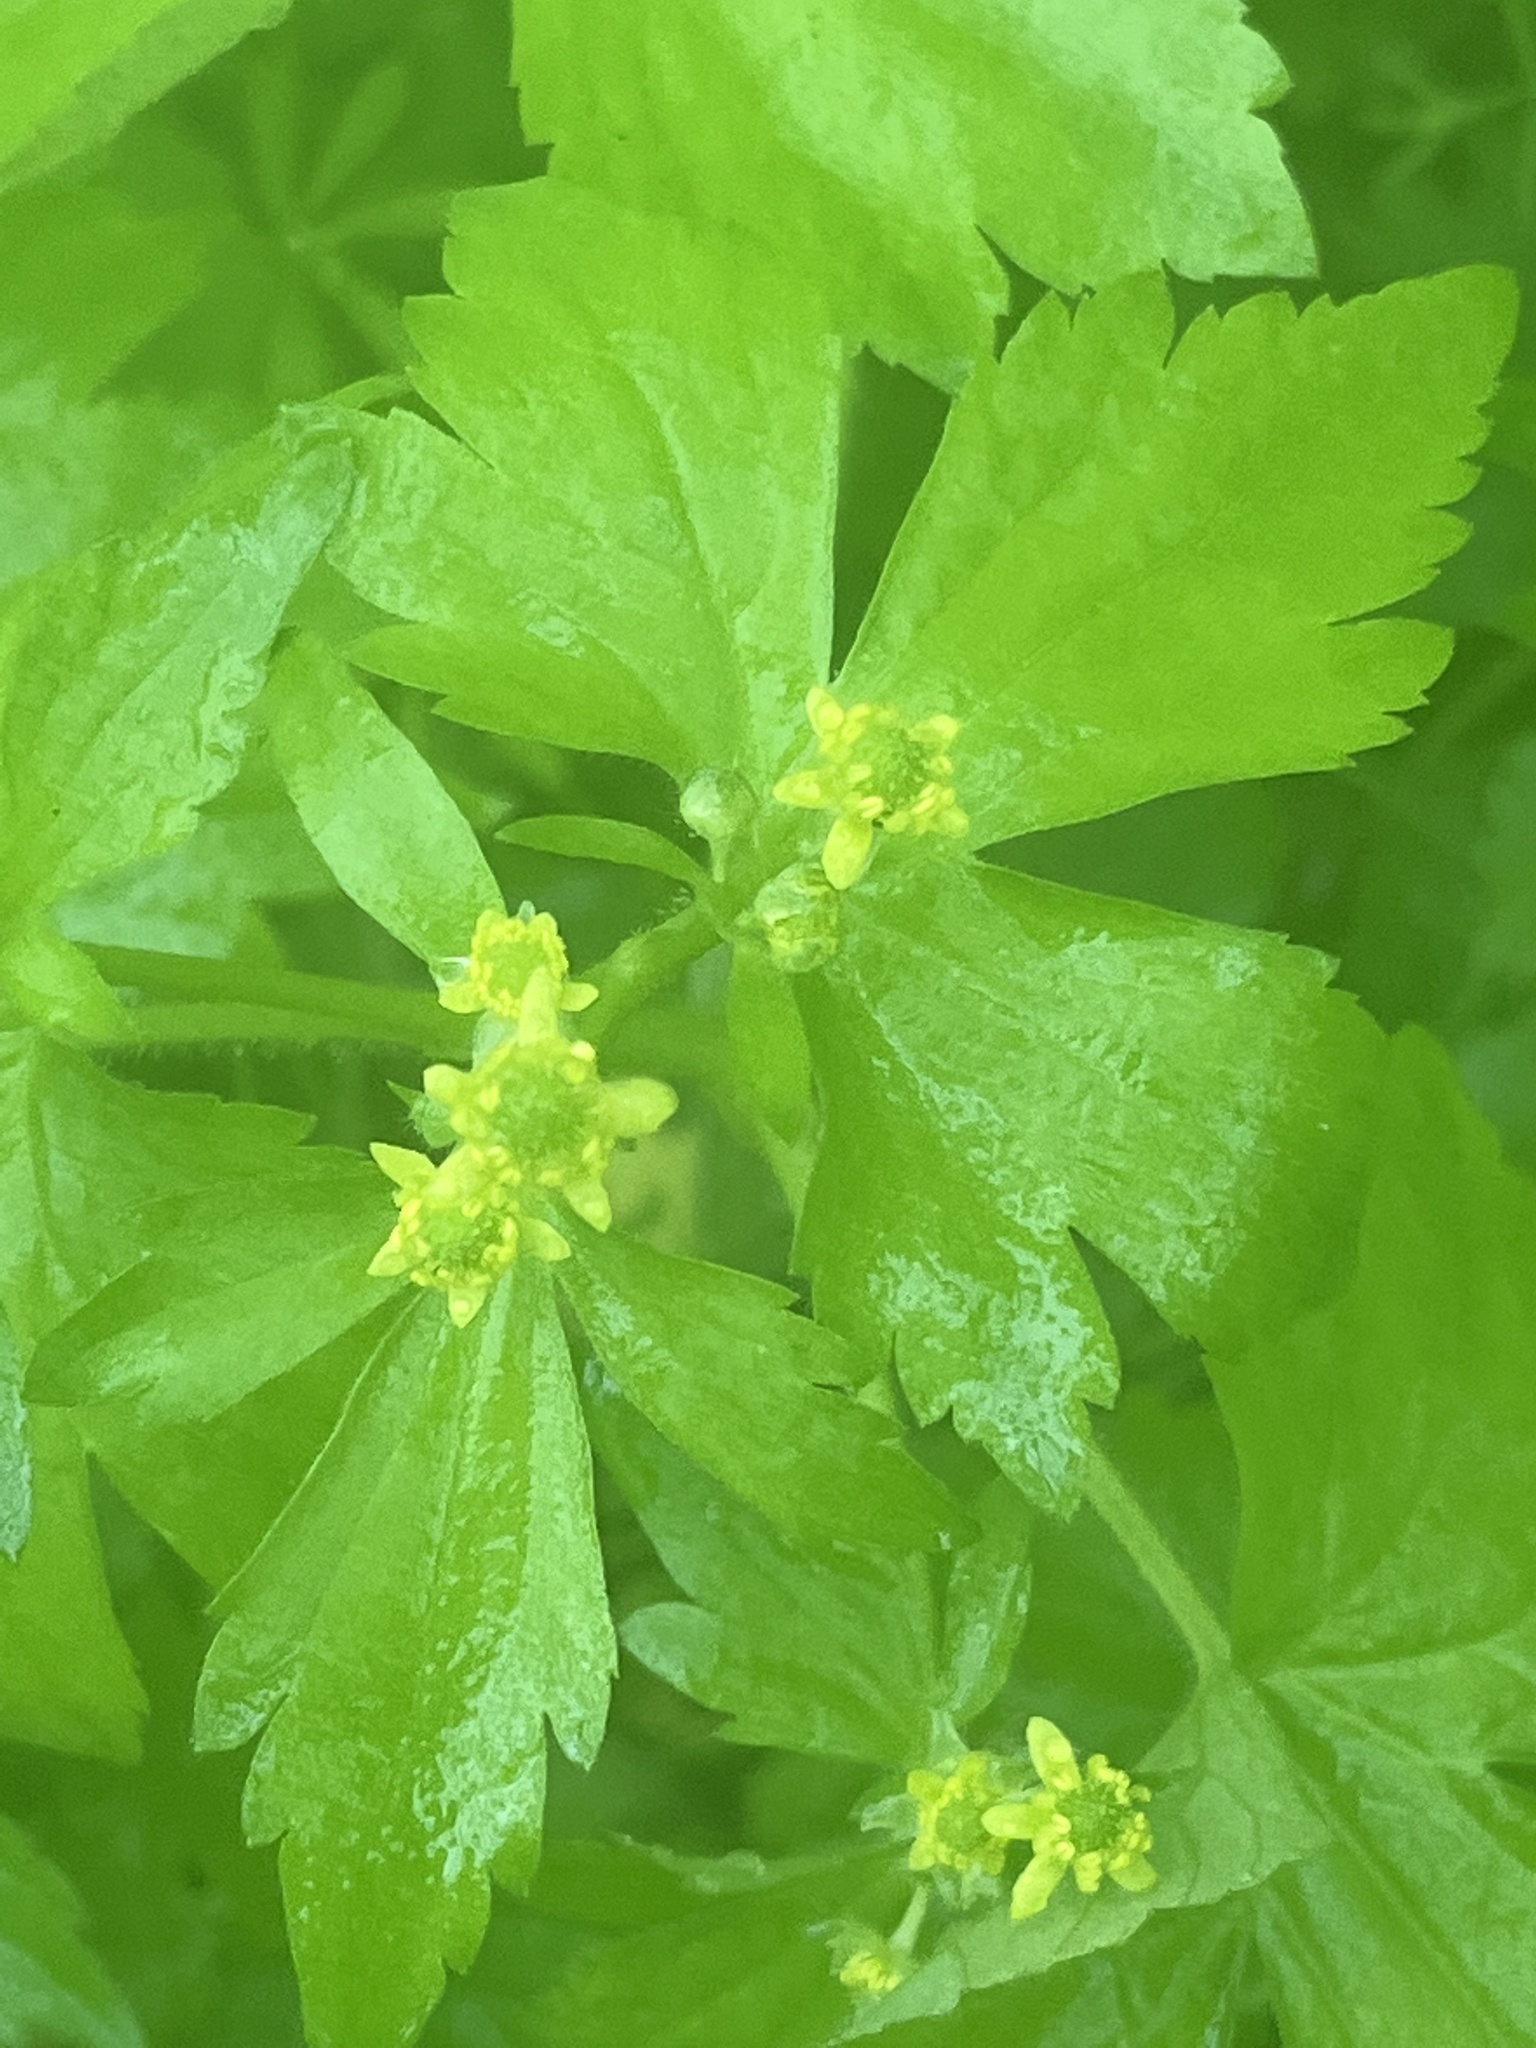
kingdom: Plantae
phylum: Tracheophyta
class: Magnoliopsida
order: Ranunculales
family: Ranunculaceae
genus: Ranunculus
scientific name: Ranunculus recurvatus
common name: Blisterwort
